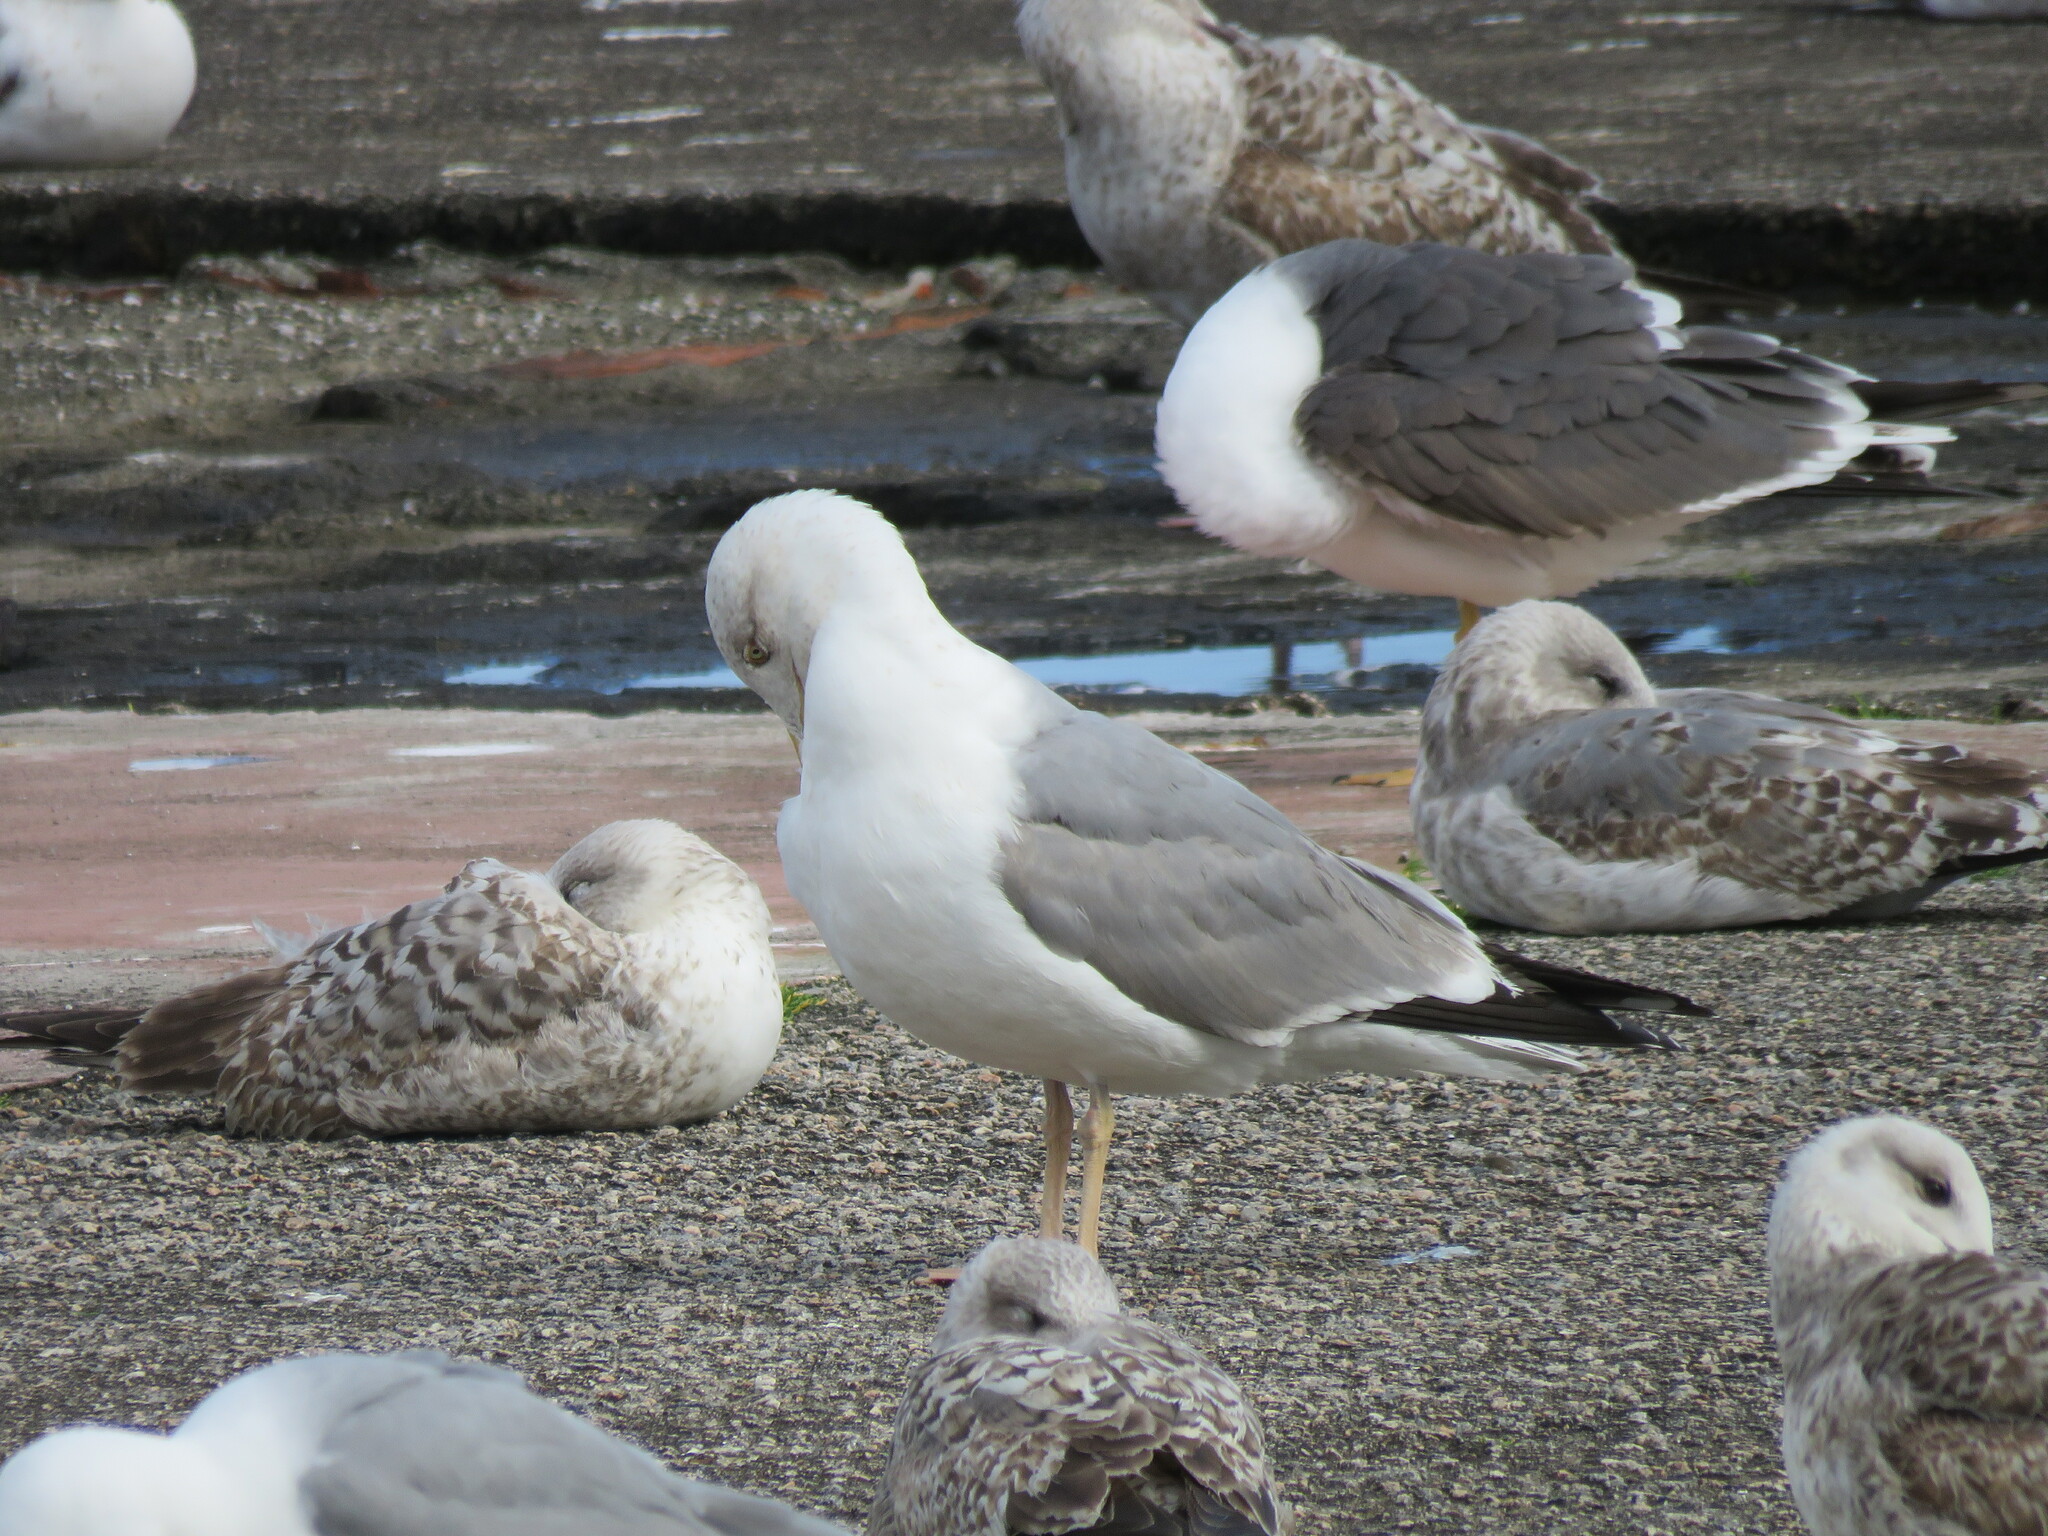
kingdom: Animalia
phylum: Chordata
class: Aves
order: Charadriiformes
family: Laridae
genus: Larus
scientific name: Larus michahellis
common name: Yellow-legged gull
